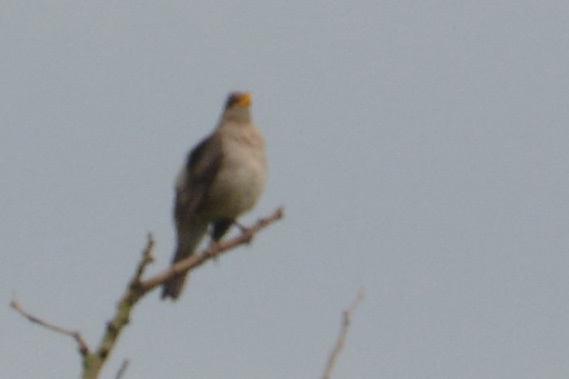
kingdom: Animalia
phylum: Chordata
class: Aves
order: Passeriformes
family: Turdidae
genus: Turdus
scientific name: Turdus amaurochalinus
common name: Creamy-bellied thrush
